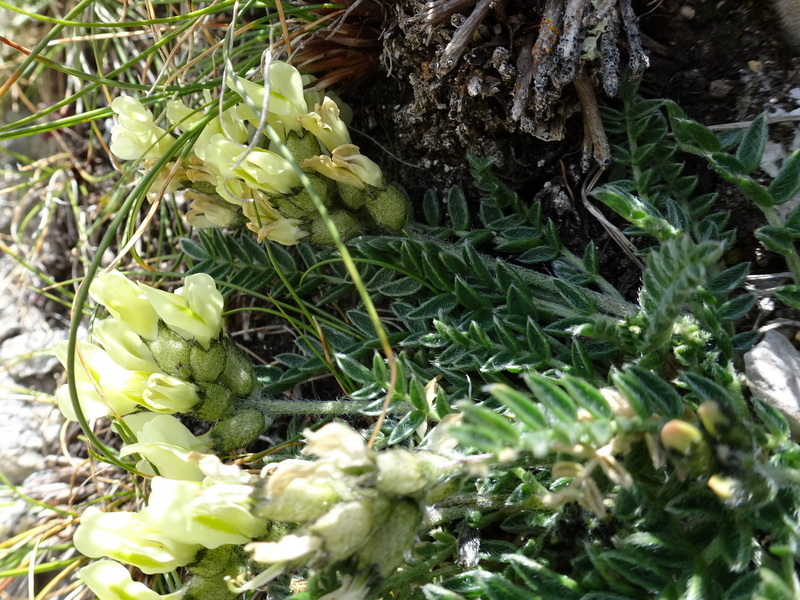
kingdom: Plantae
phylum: Tracheophyta
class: Magnoliopsida
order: Fabales
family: Fabaceae
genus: Oxytropis
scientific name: Oxytropis campestris
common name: Field locoweed
